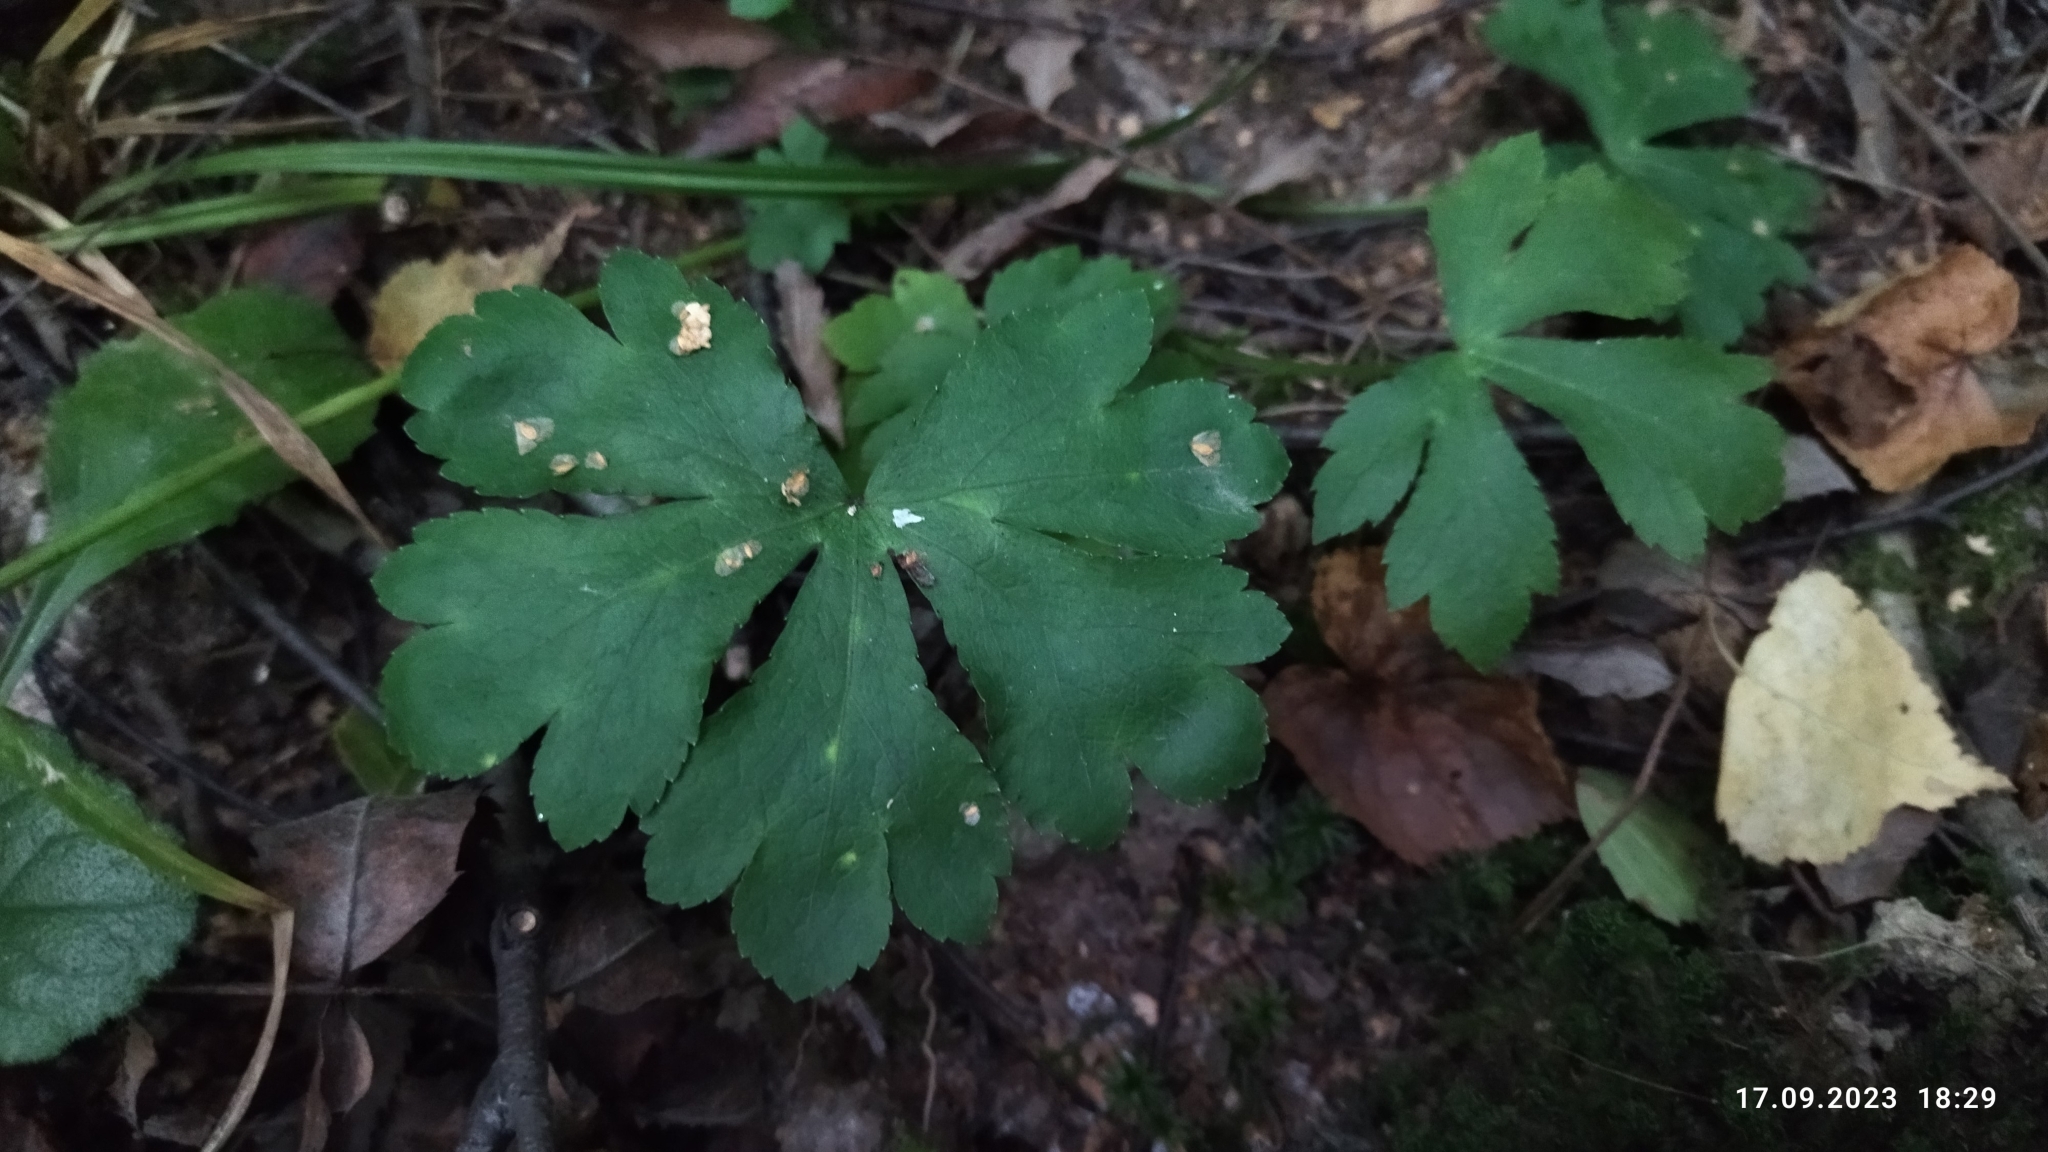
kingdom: Plantae
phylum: Tracheophyta
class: Magnoliopsida
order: Apiales
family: Apiaceae
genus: Sanicula
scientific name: Sanicula europaea
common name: Sanicle
